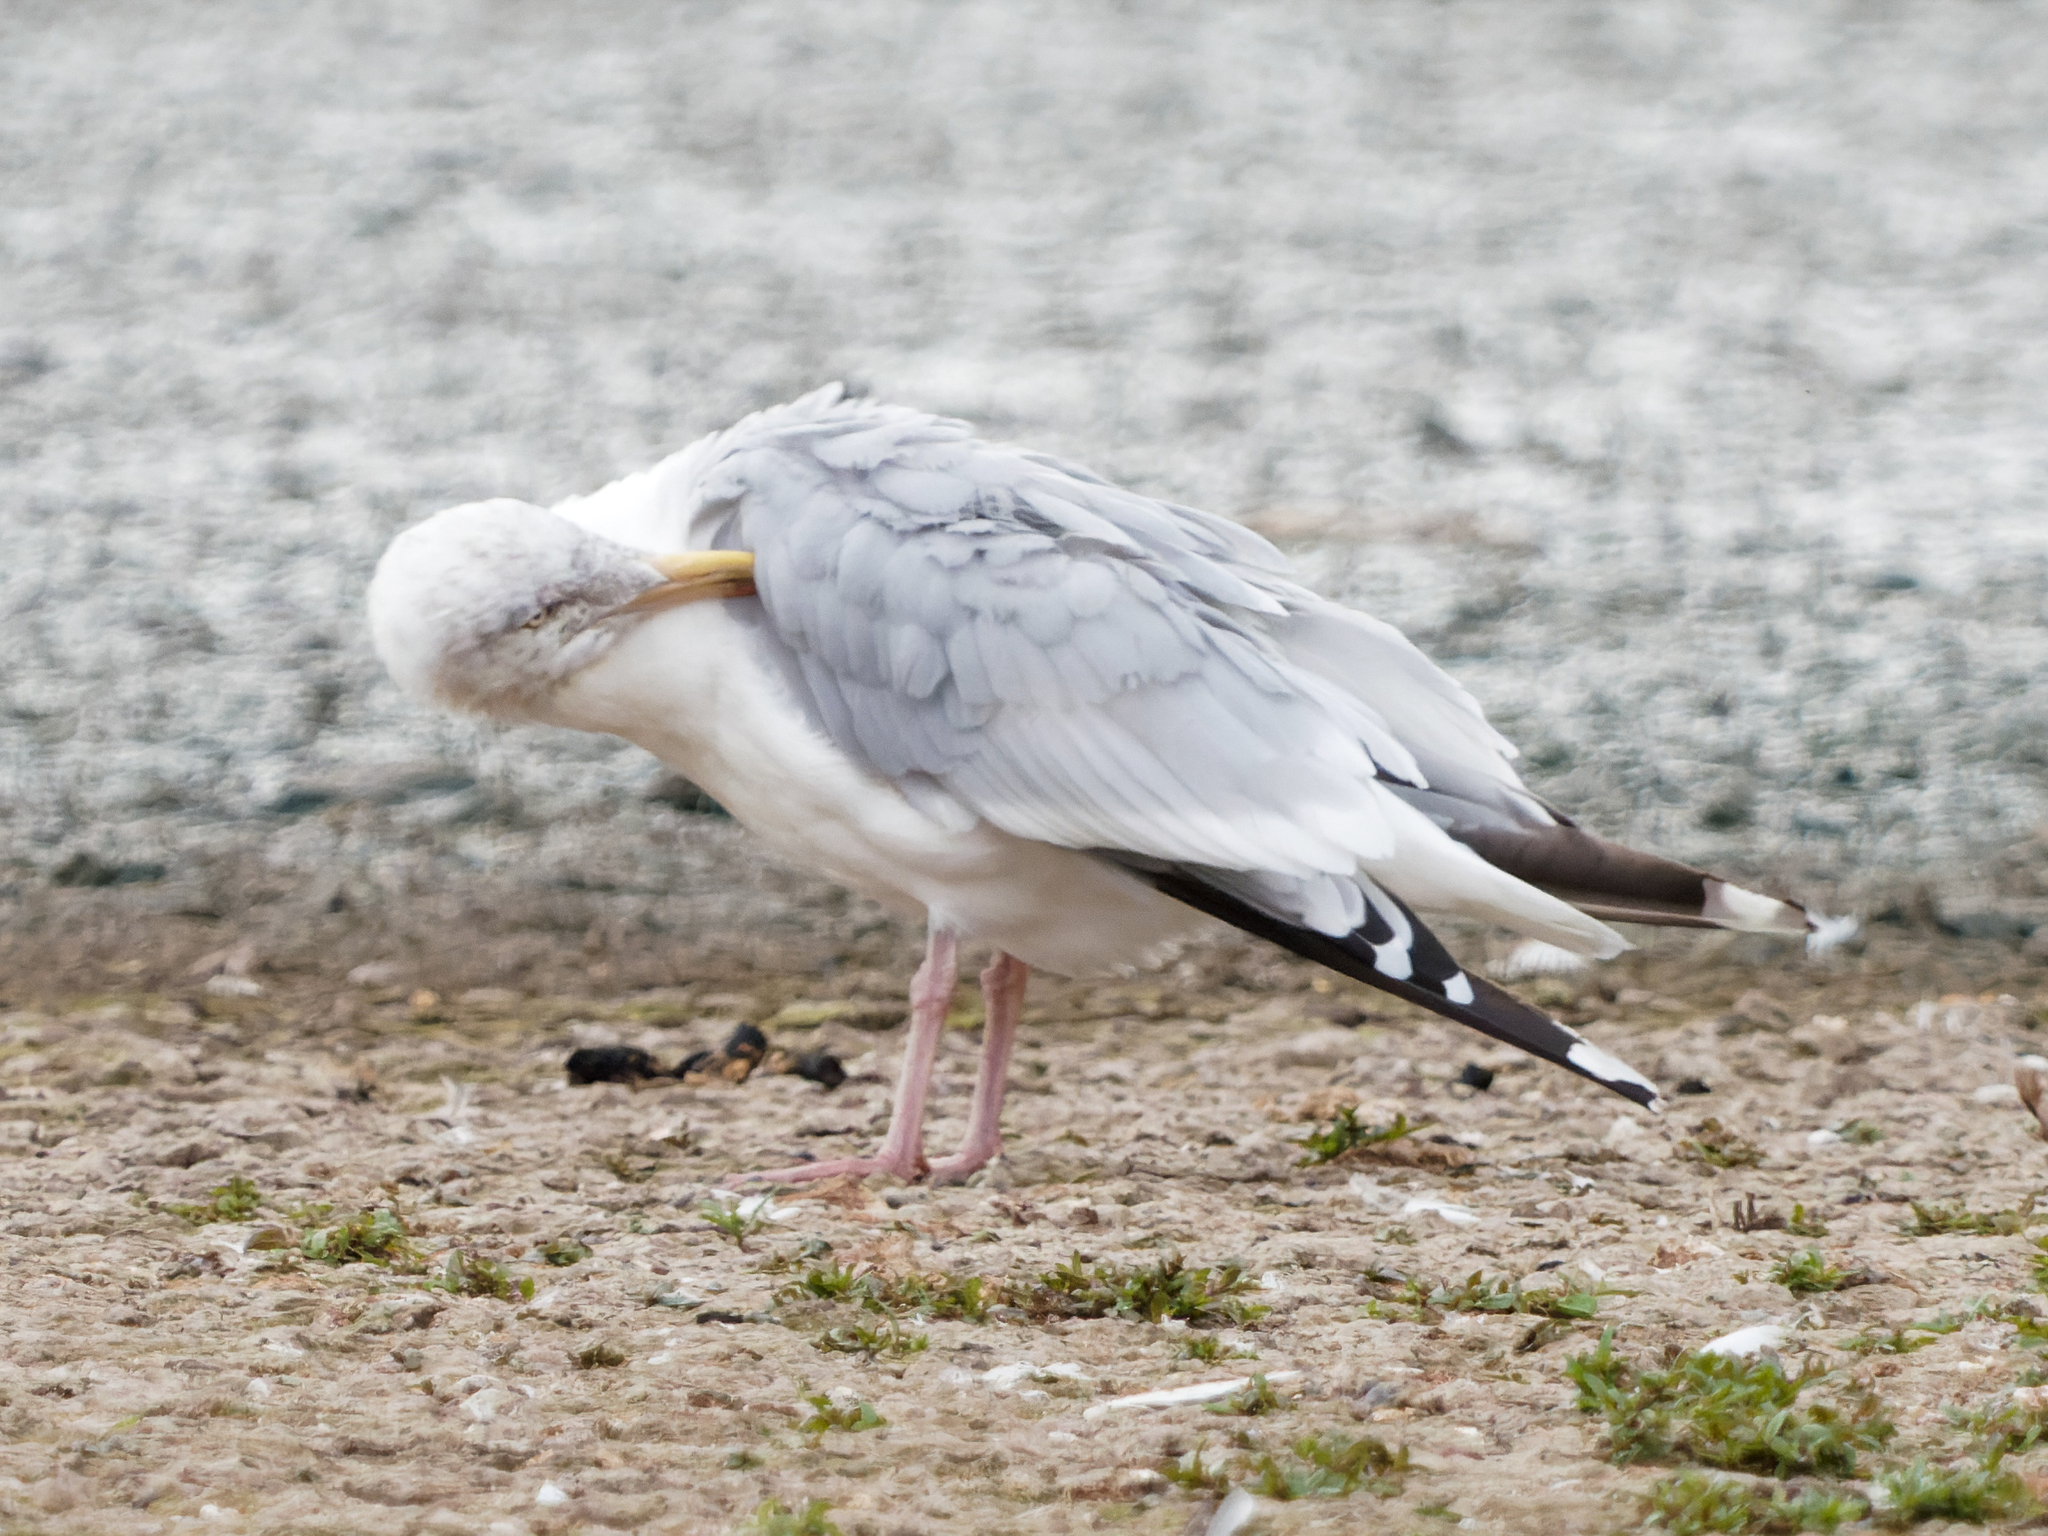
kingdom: Animalia
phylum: Chordata
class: Aves
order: Charadriiformes
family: Laridae
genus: Larus
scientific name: Larus argentatus
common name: Herring gull
